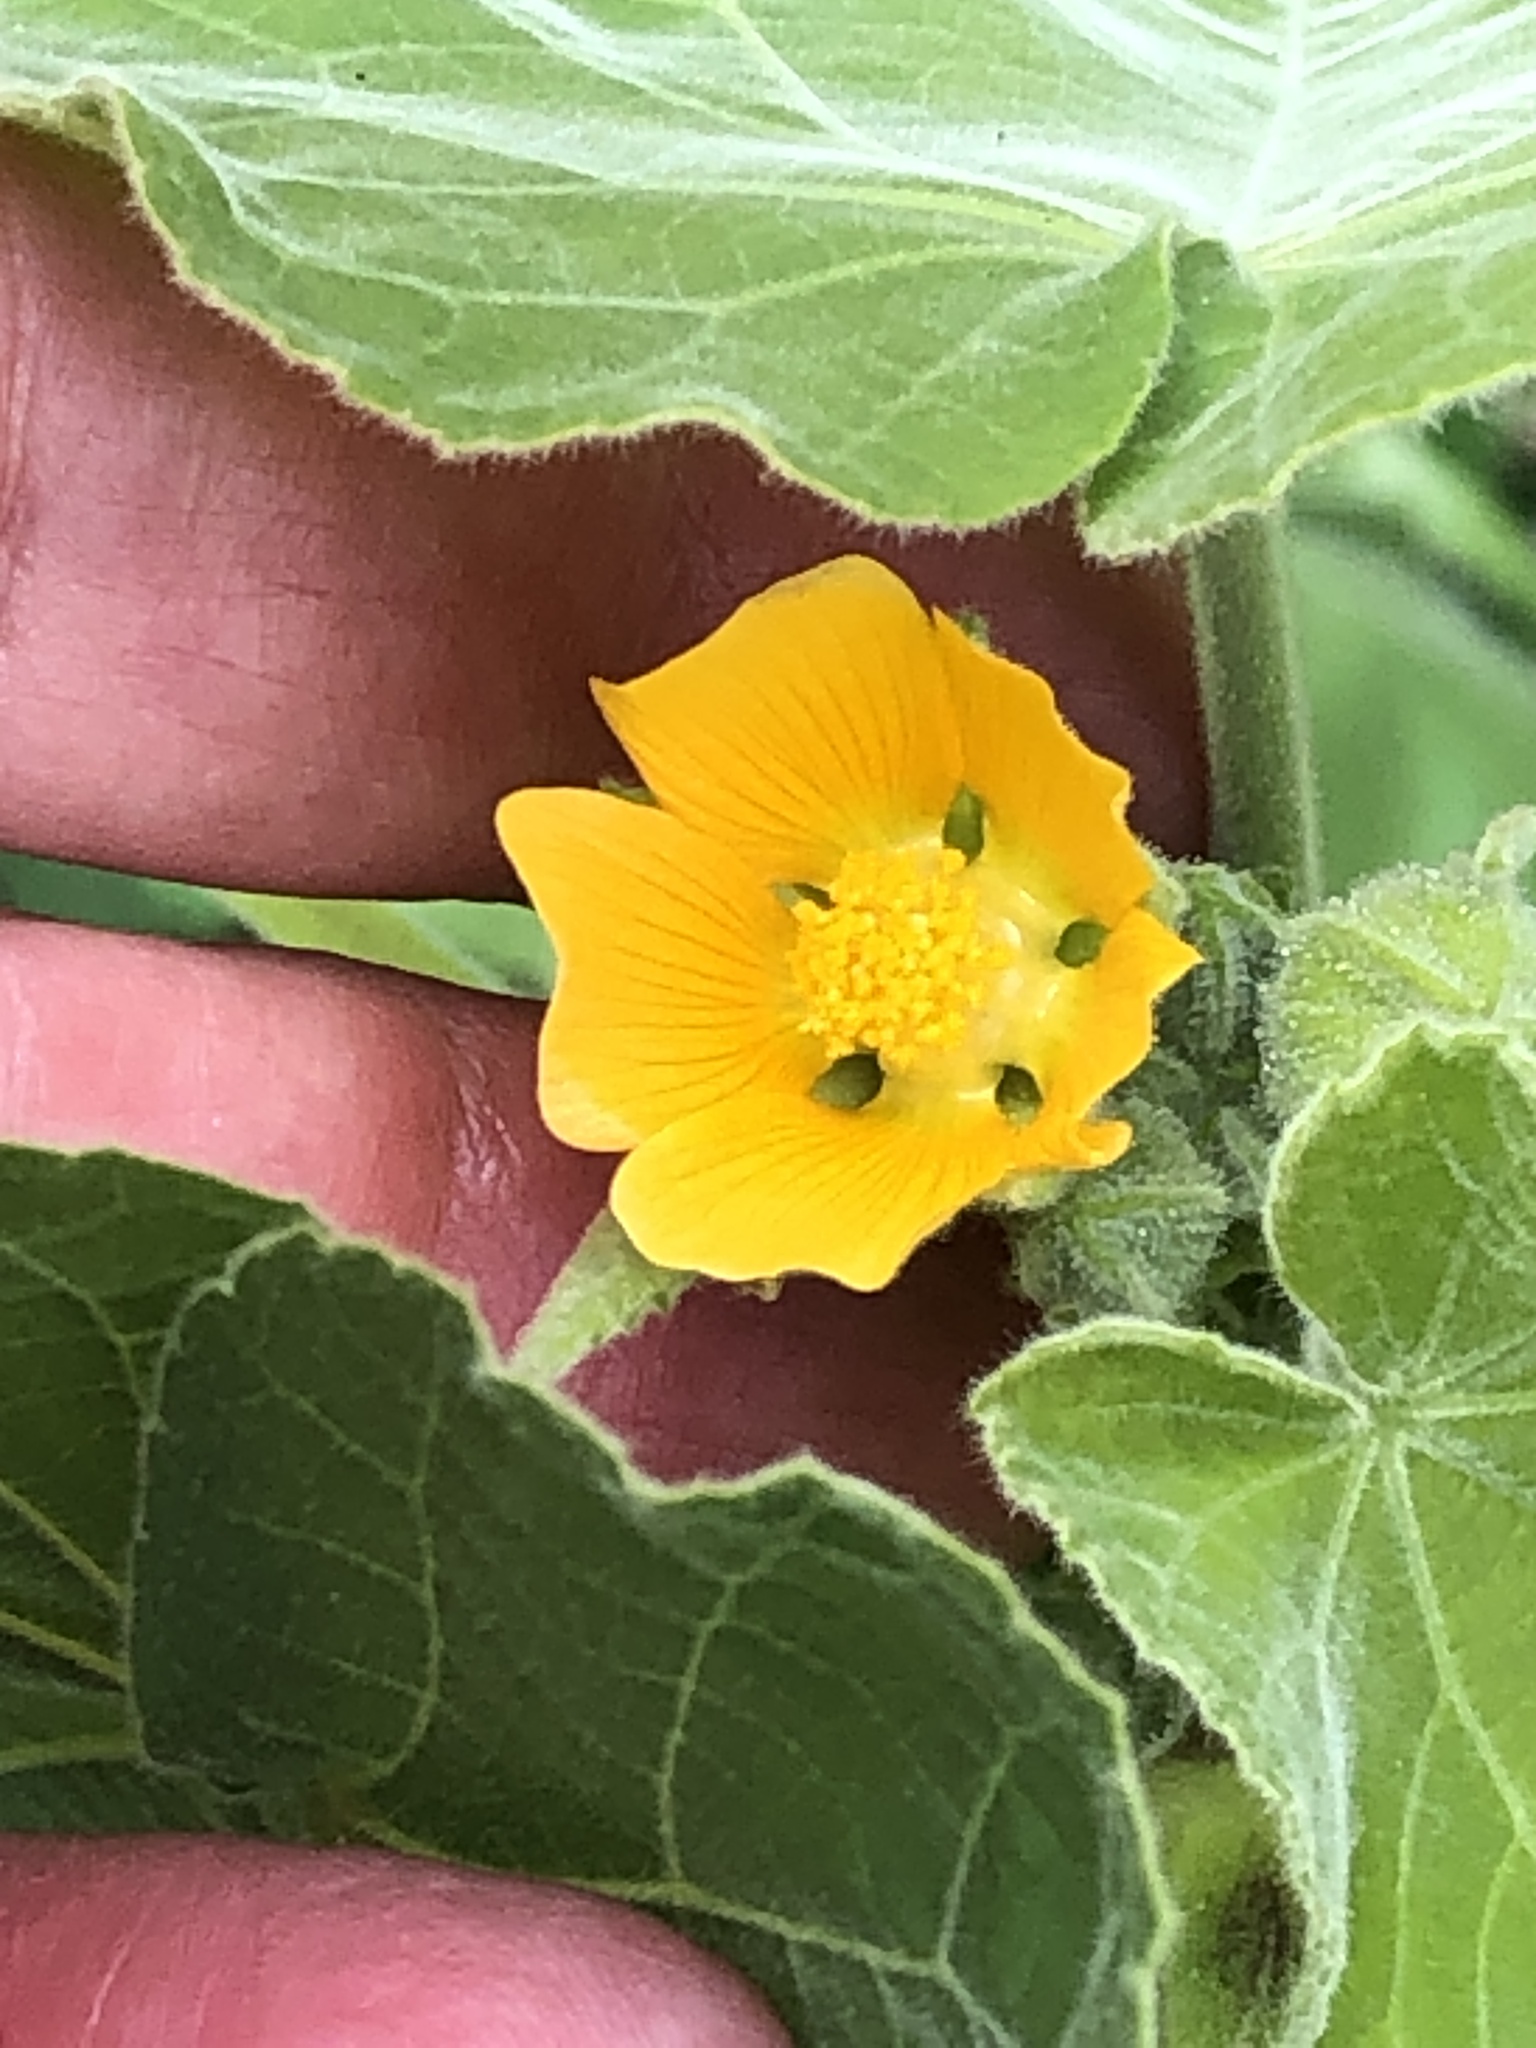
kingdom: Plantae
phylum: Tracheophyta
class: Magnoliopsida
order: Malvales
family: Malvaceae
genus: Abutilon
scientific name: Abutilon theophrasti
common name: Velvetleaf
